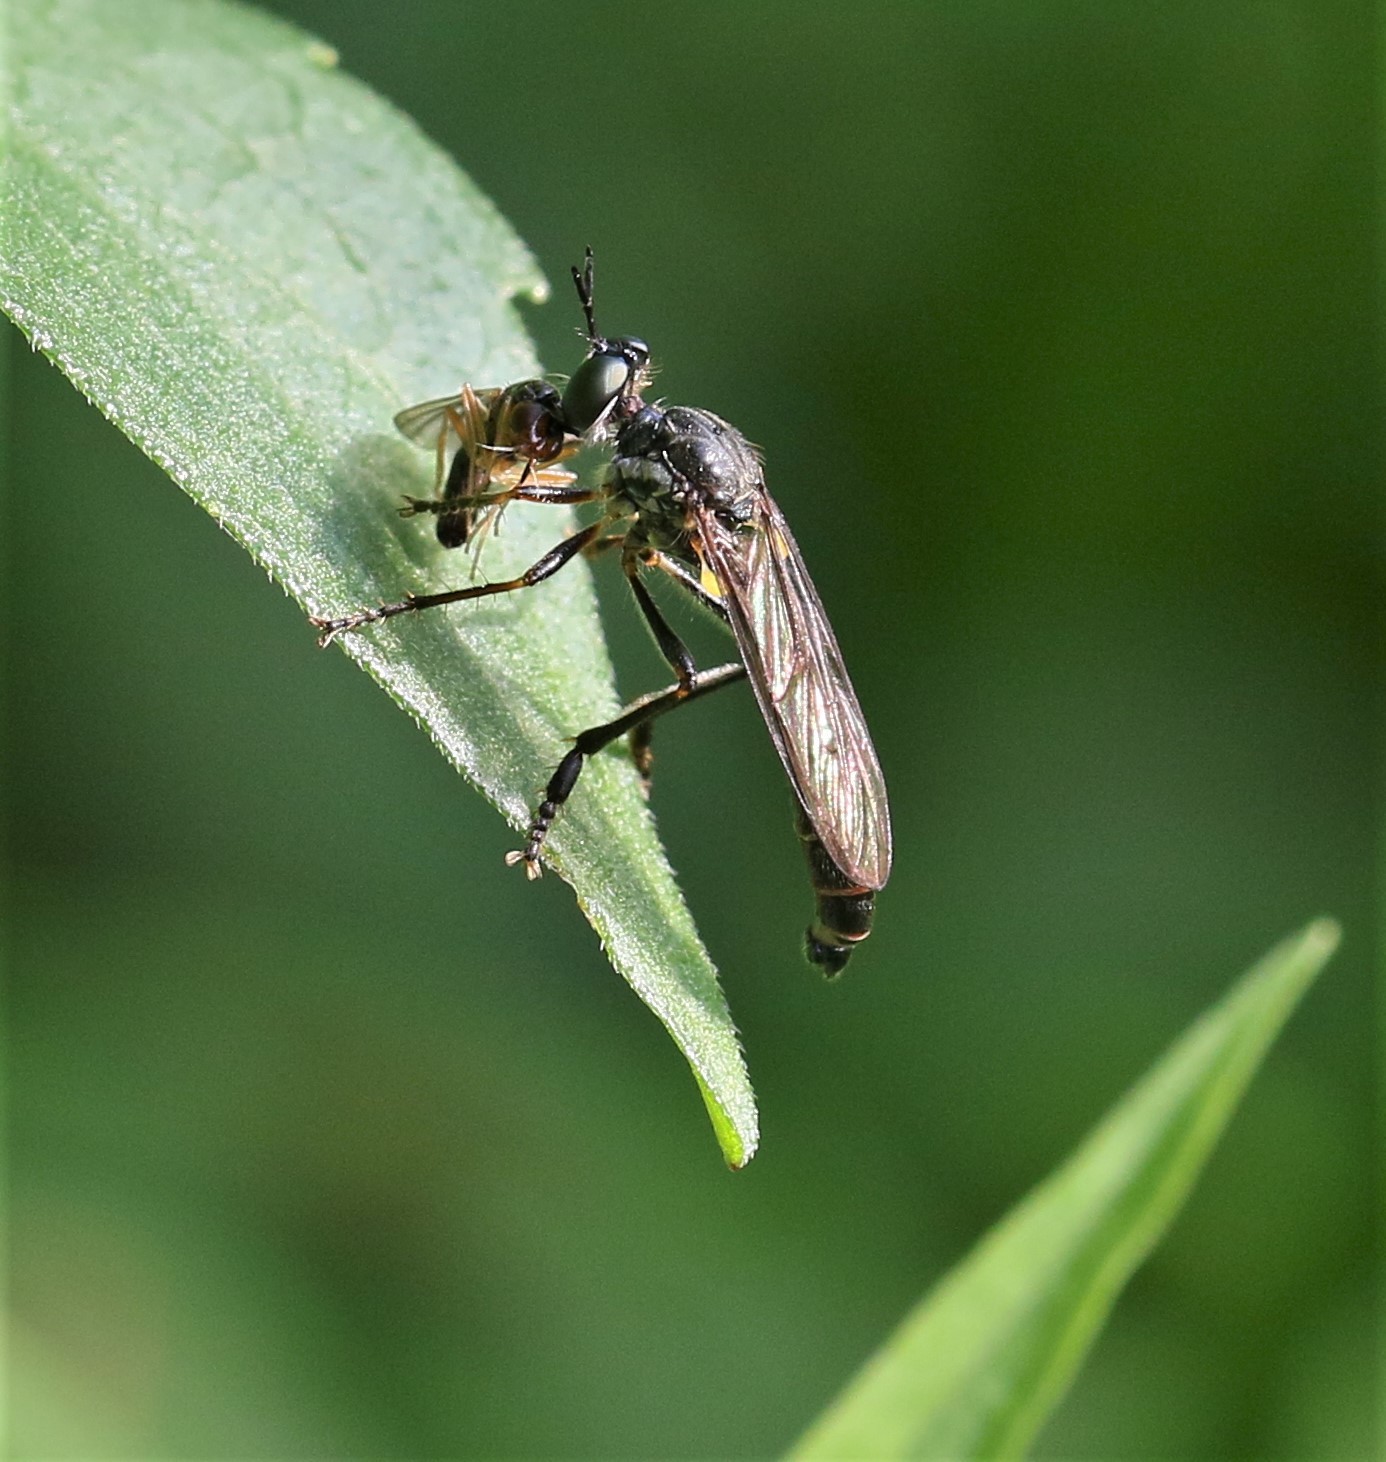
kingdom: Animalia
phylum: Arthropoda
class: Insecta
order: Diptera
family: Asilidae
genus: Dioctria
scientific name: Dioctria hyalipennis
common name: Stripe-legged robberfly
